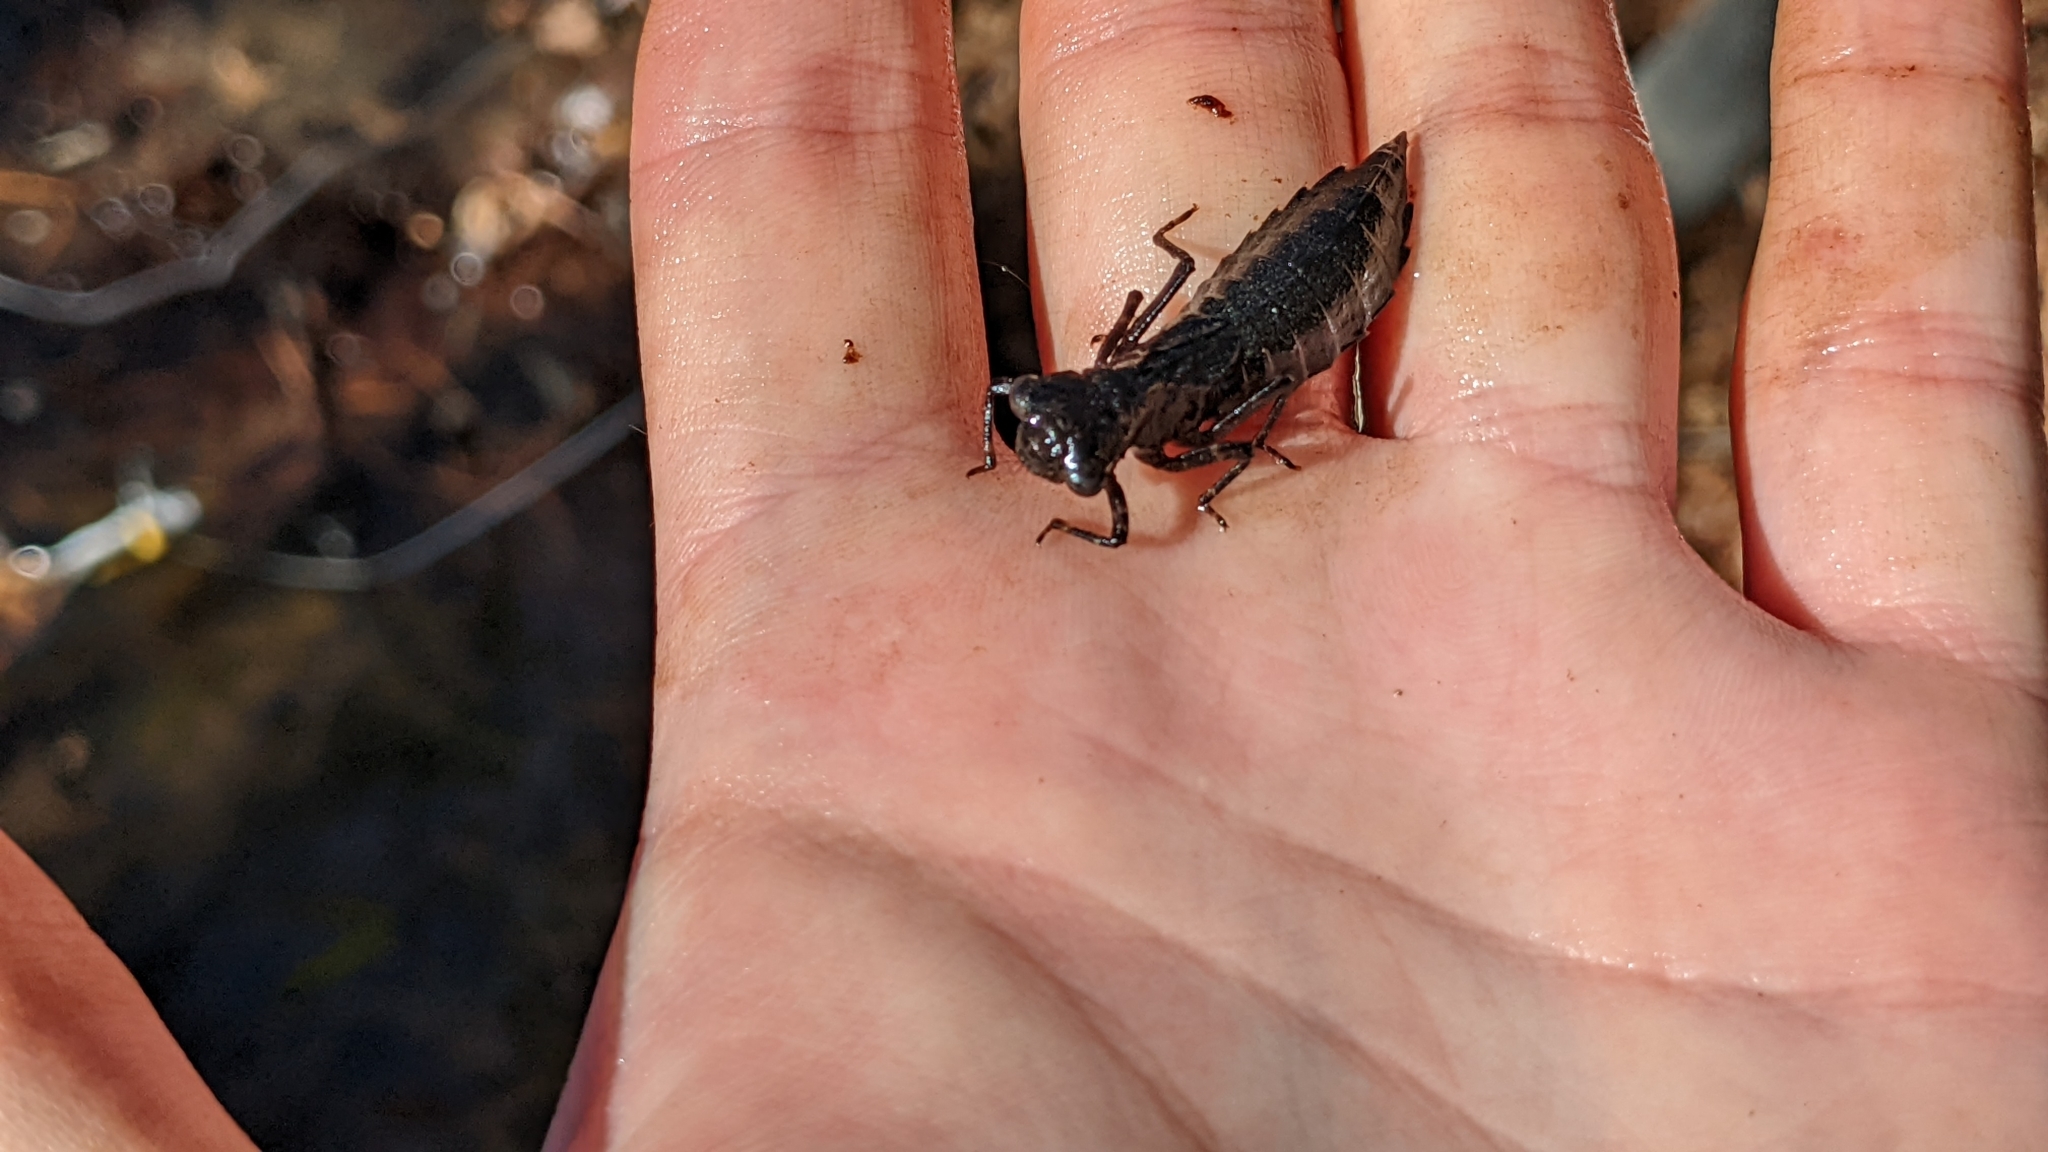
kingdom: Animalia
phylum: Arthropoda
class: Insecta
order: Odonata
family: Aeshnidae
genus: Epiaeschna
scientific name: Epiaeschna heros
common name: Swamp darner
